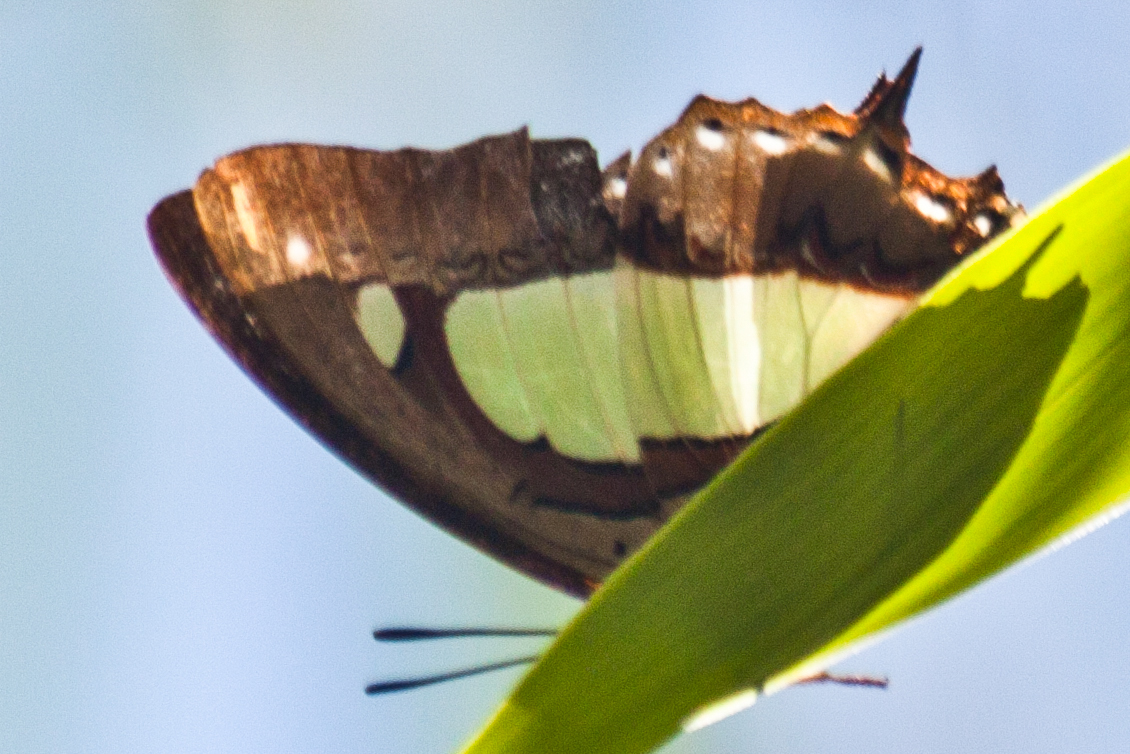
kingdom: Animalia
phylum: Arthropoda
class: Insecta
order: Lepidoptera
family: Nymphalidae
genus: Polyura
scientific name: Polyura arja
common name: Pallid nawab
